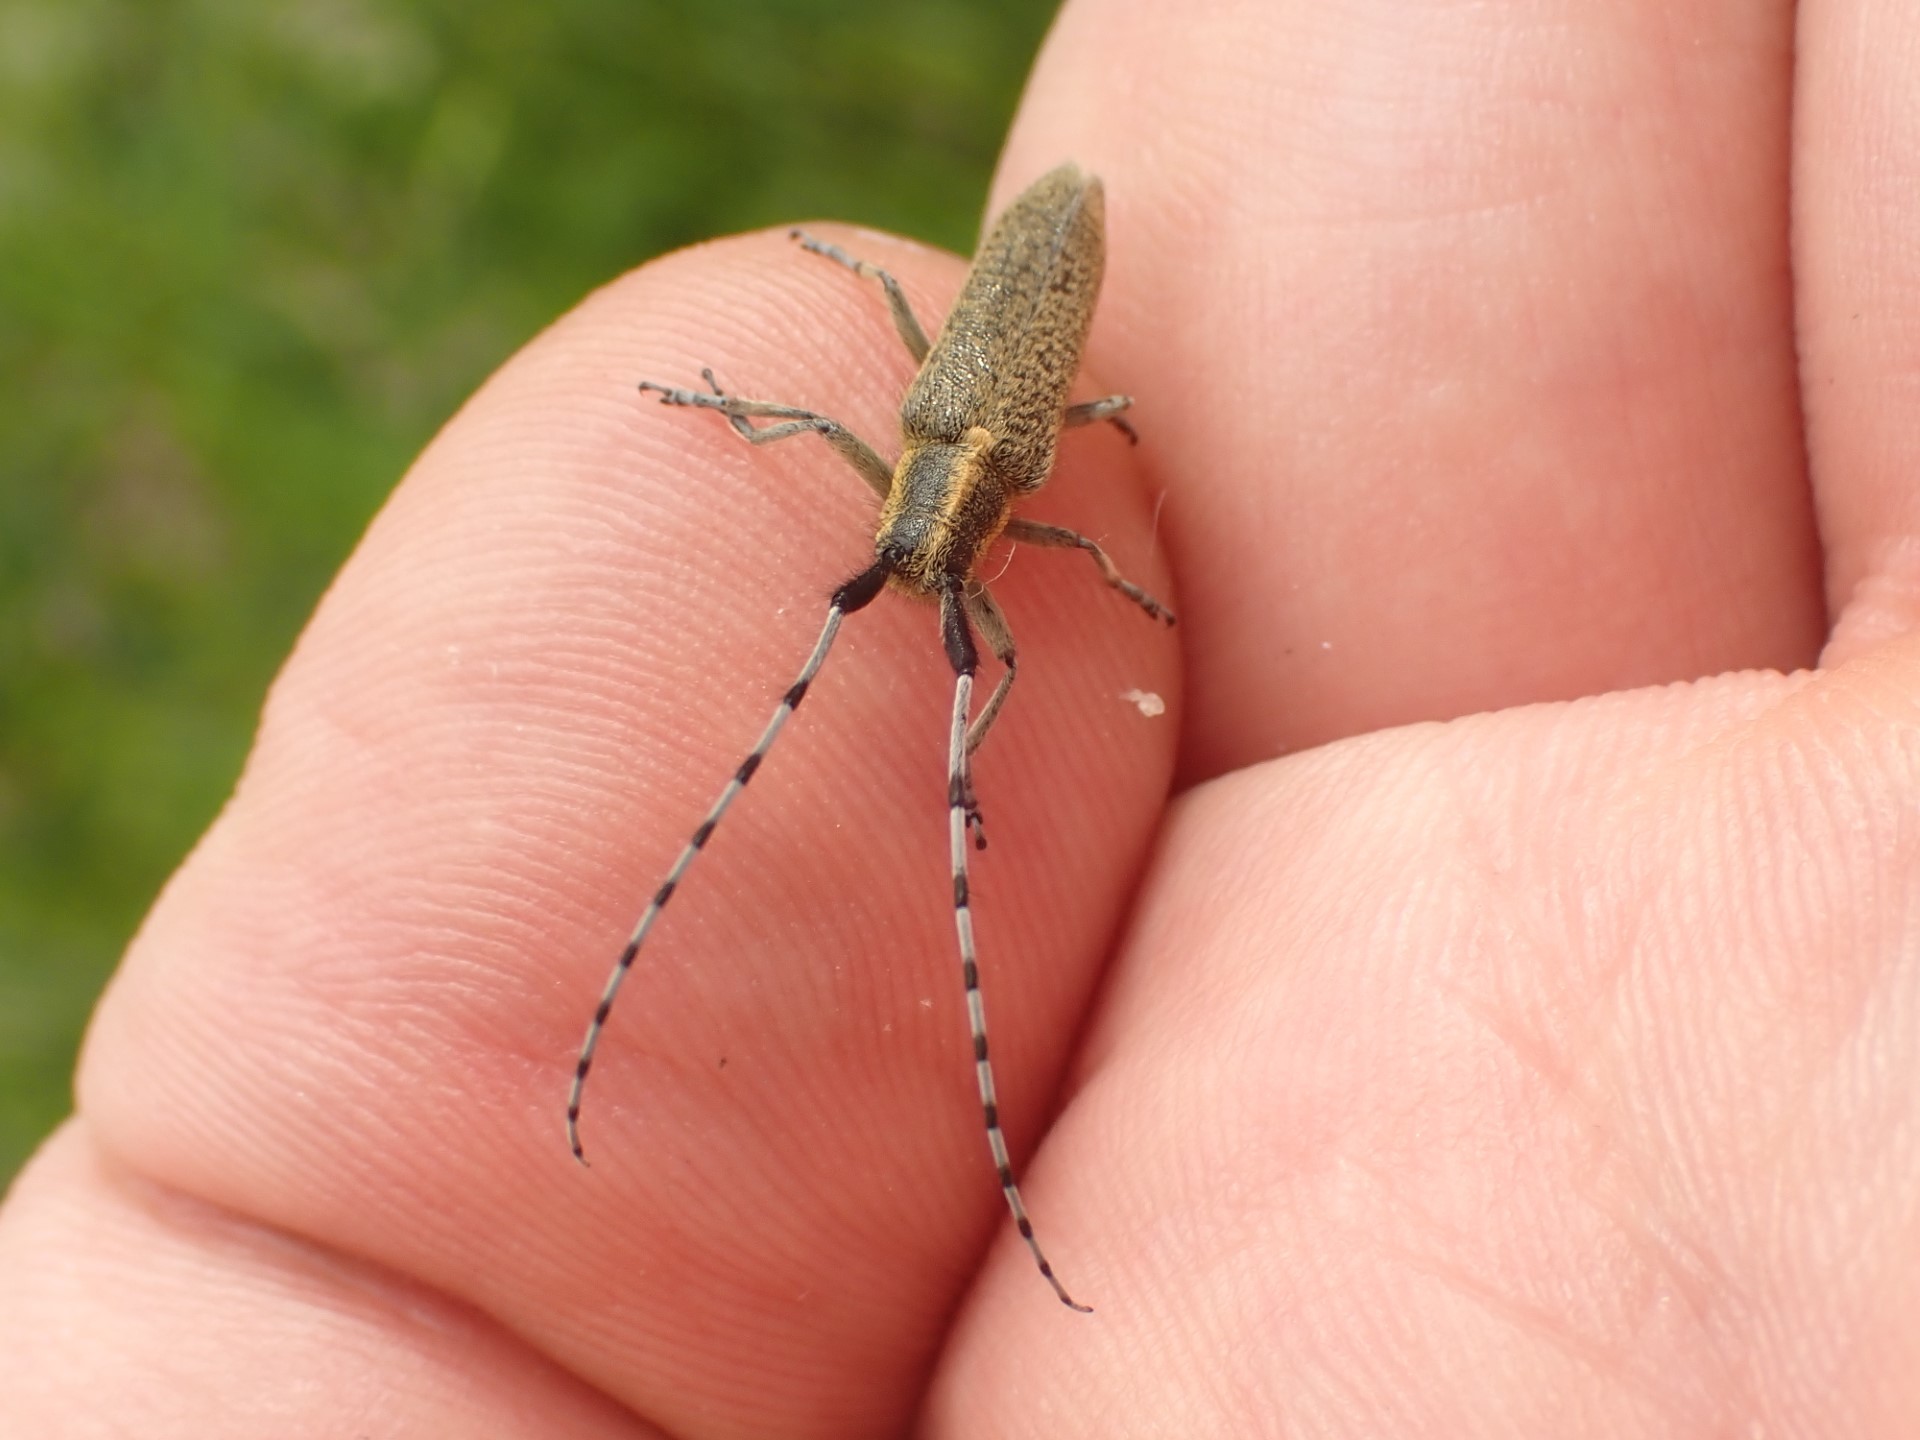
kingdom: Animalia
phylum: Arthropoda
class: Insecta
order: Coleoptera
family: Cerambycidae
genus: Agapanthia
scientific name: Agapanthia villosoviridescens
